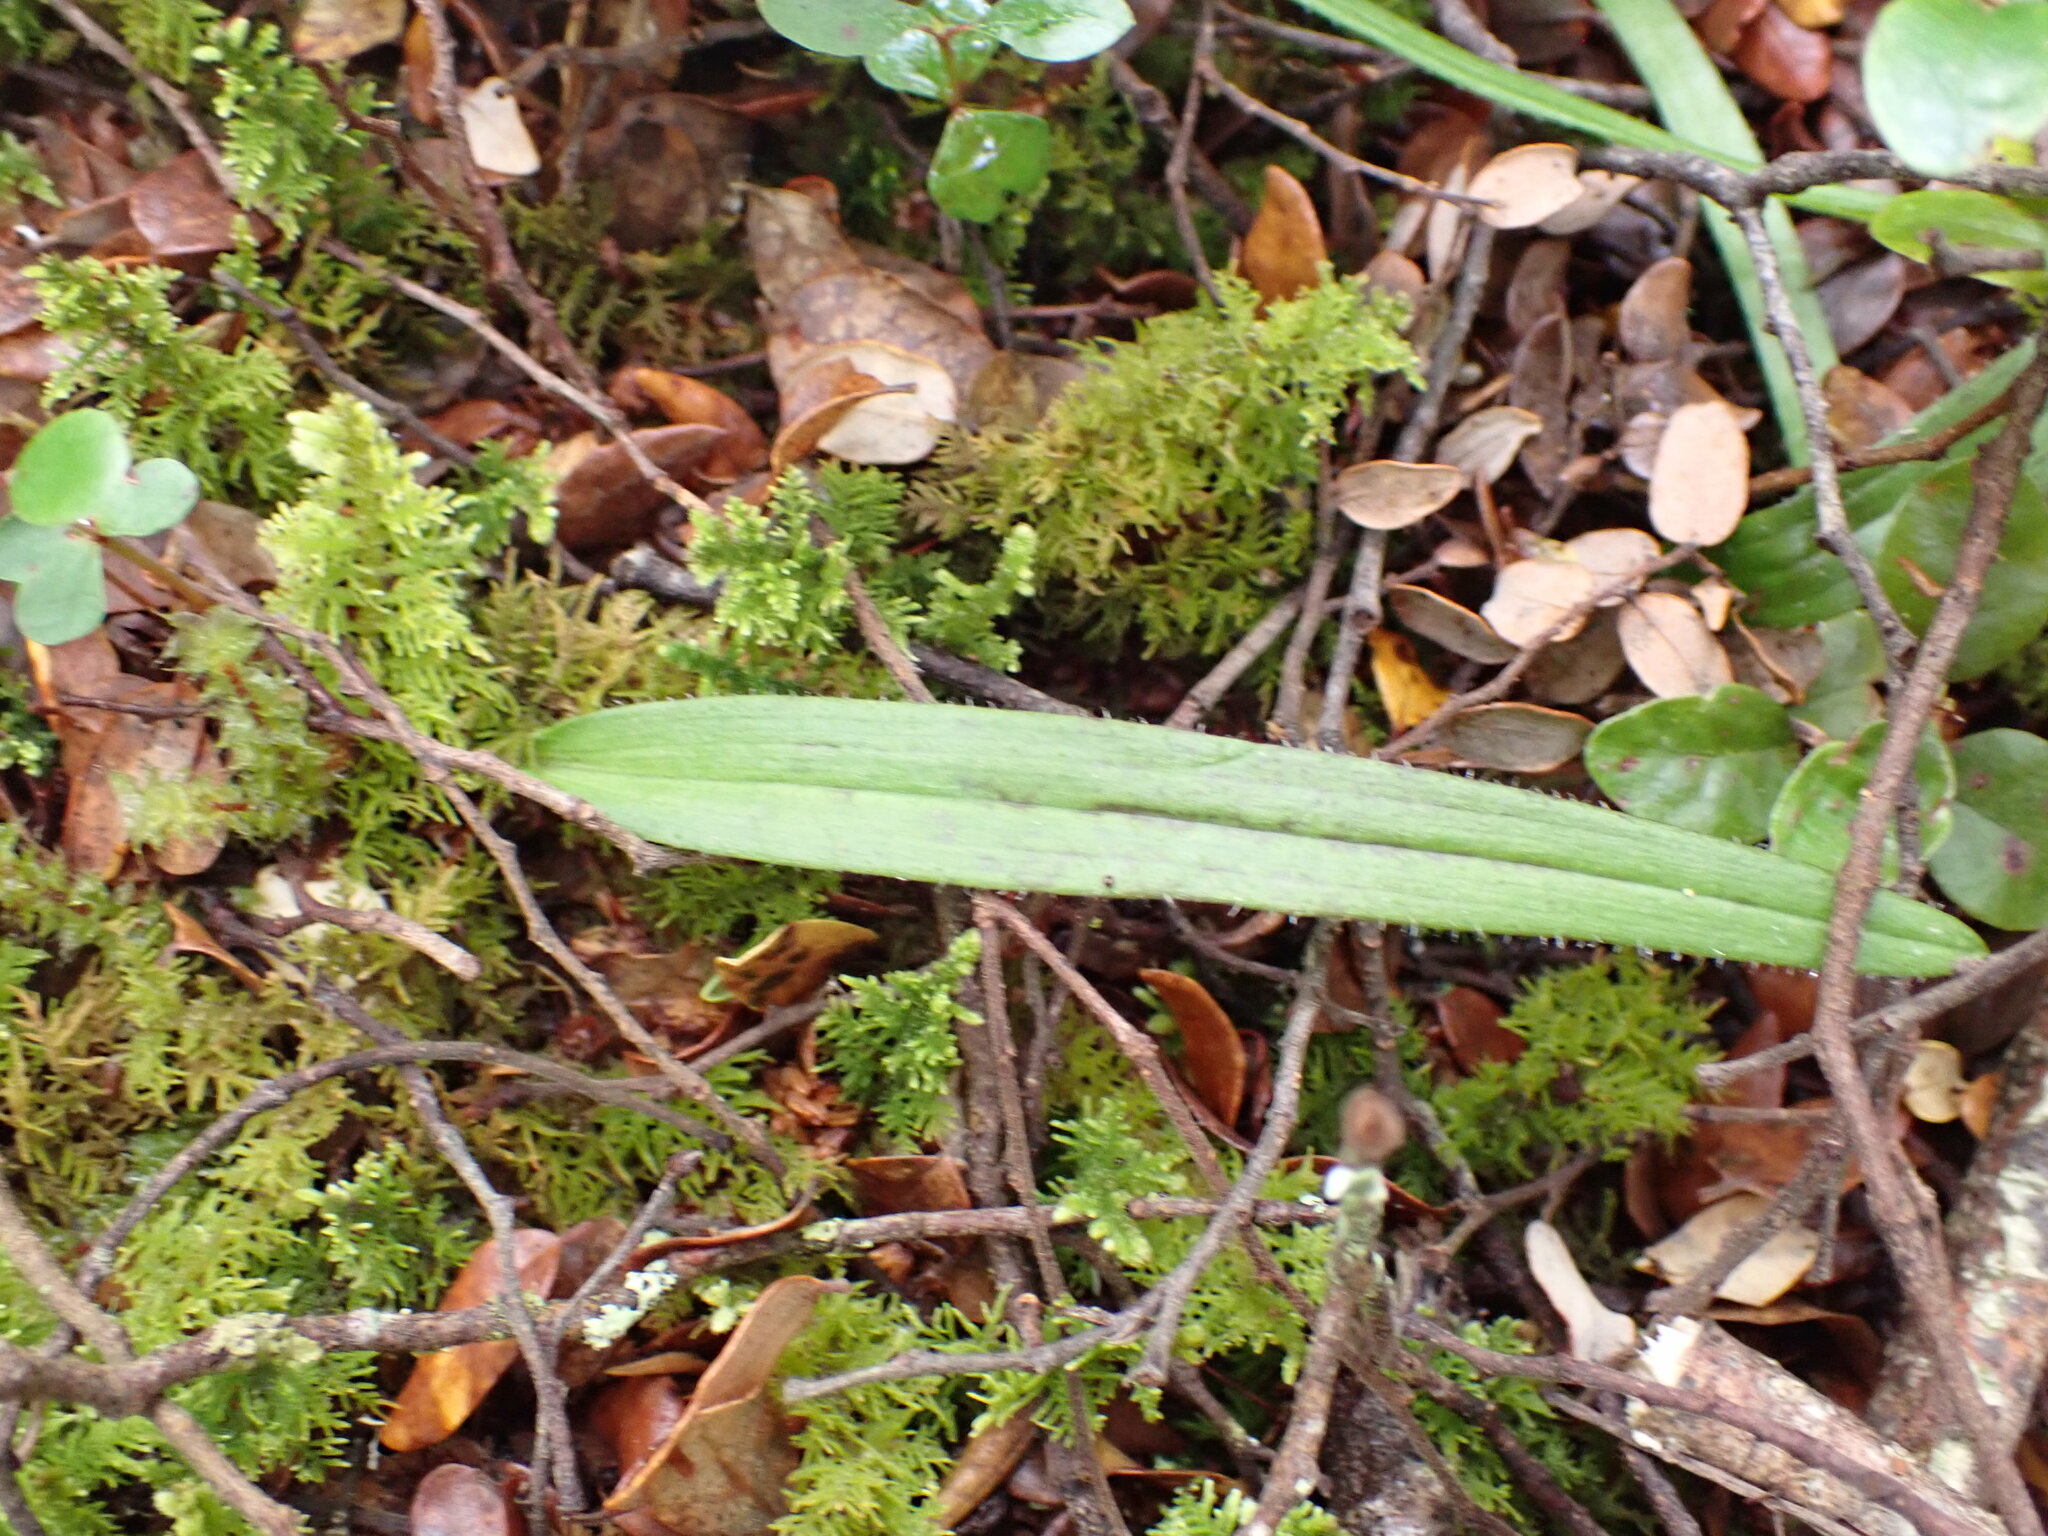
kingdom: Plantae
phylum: Tracheophyta
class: Liliopsida
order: Asparagales
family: Orchidaceae
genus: Aporostylis
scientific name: Aporostylis bifolia
